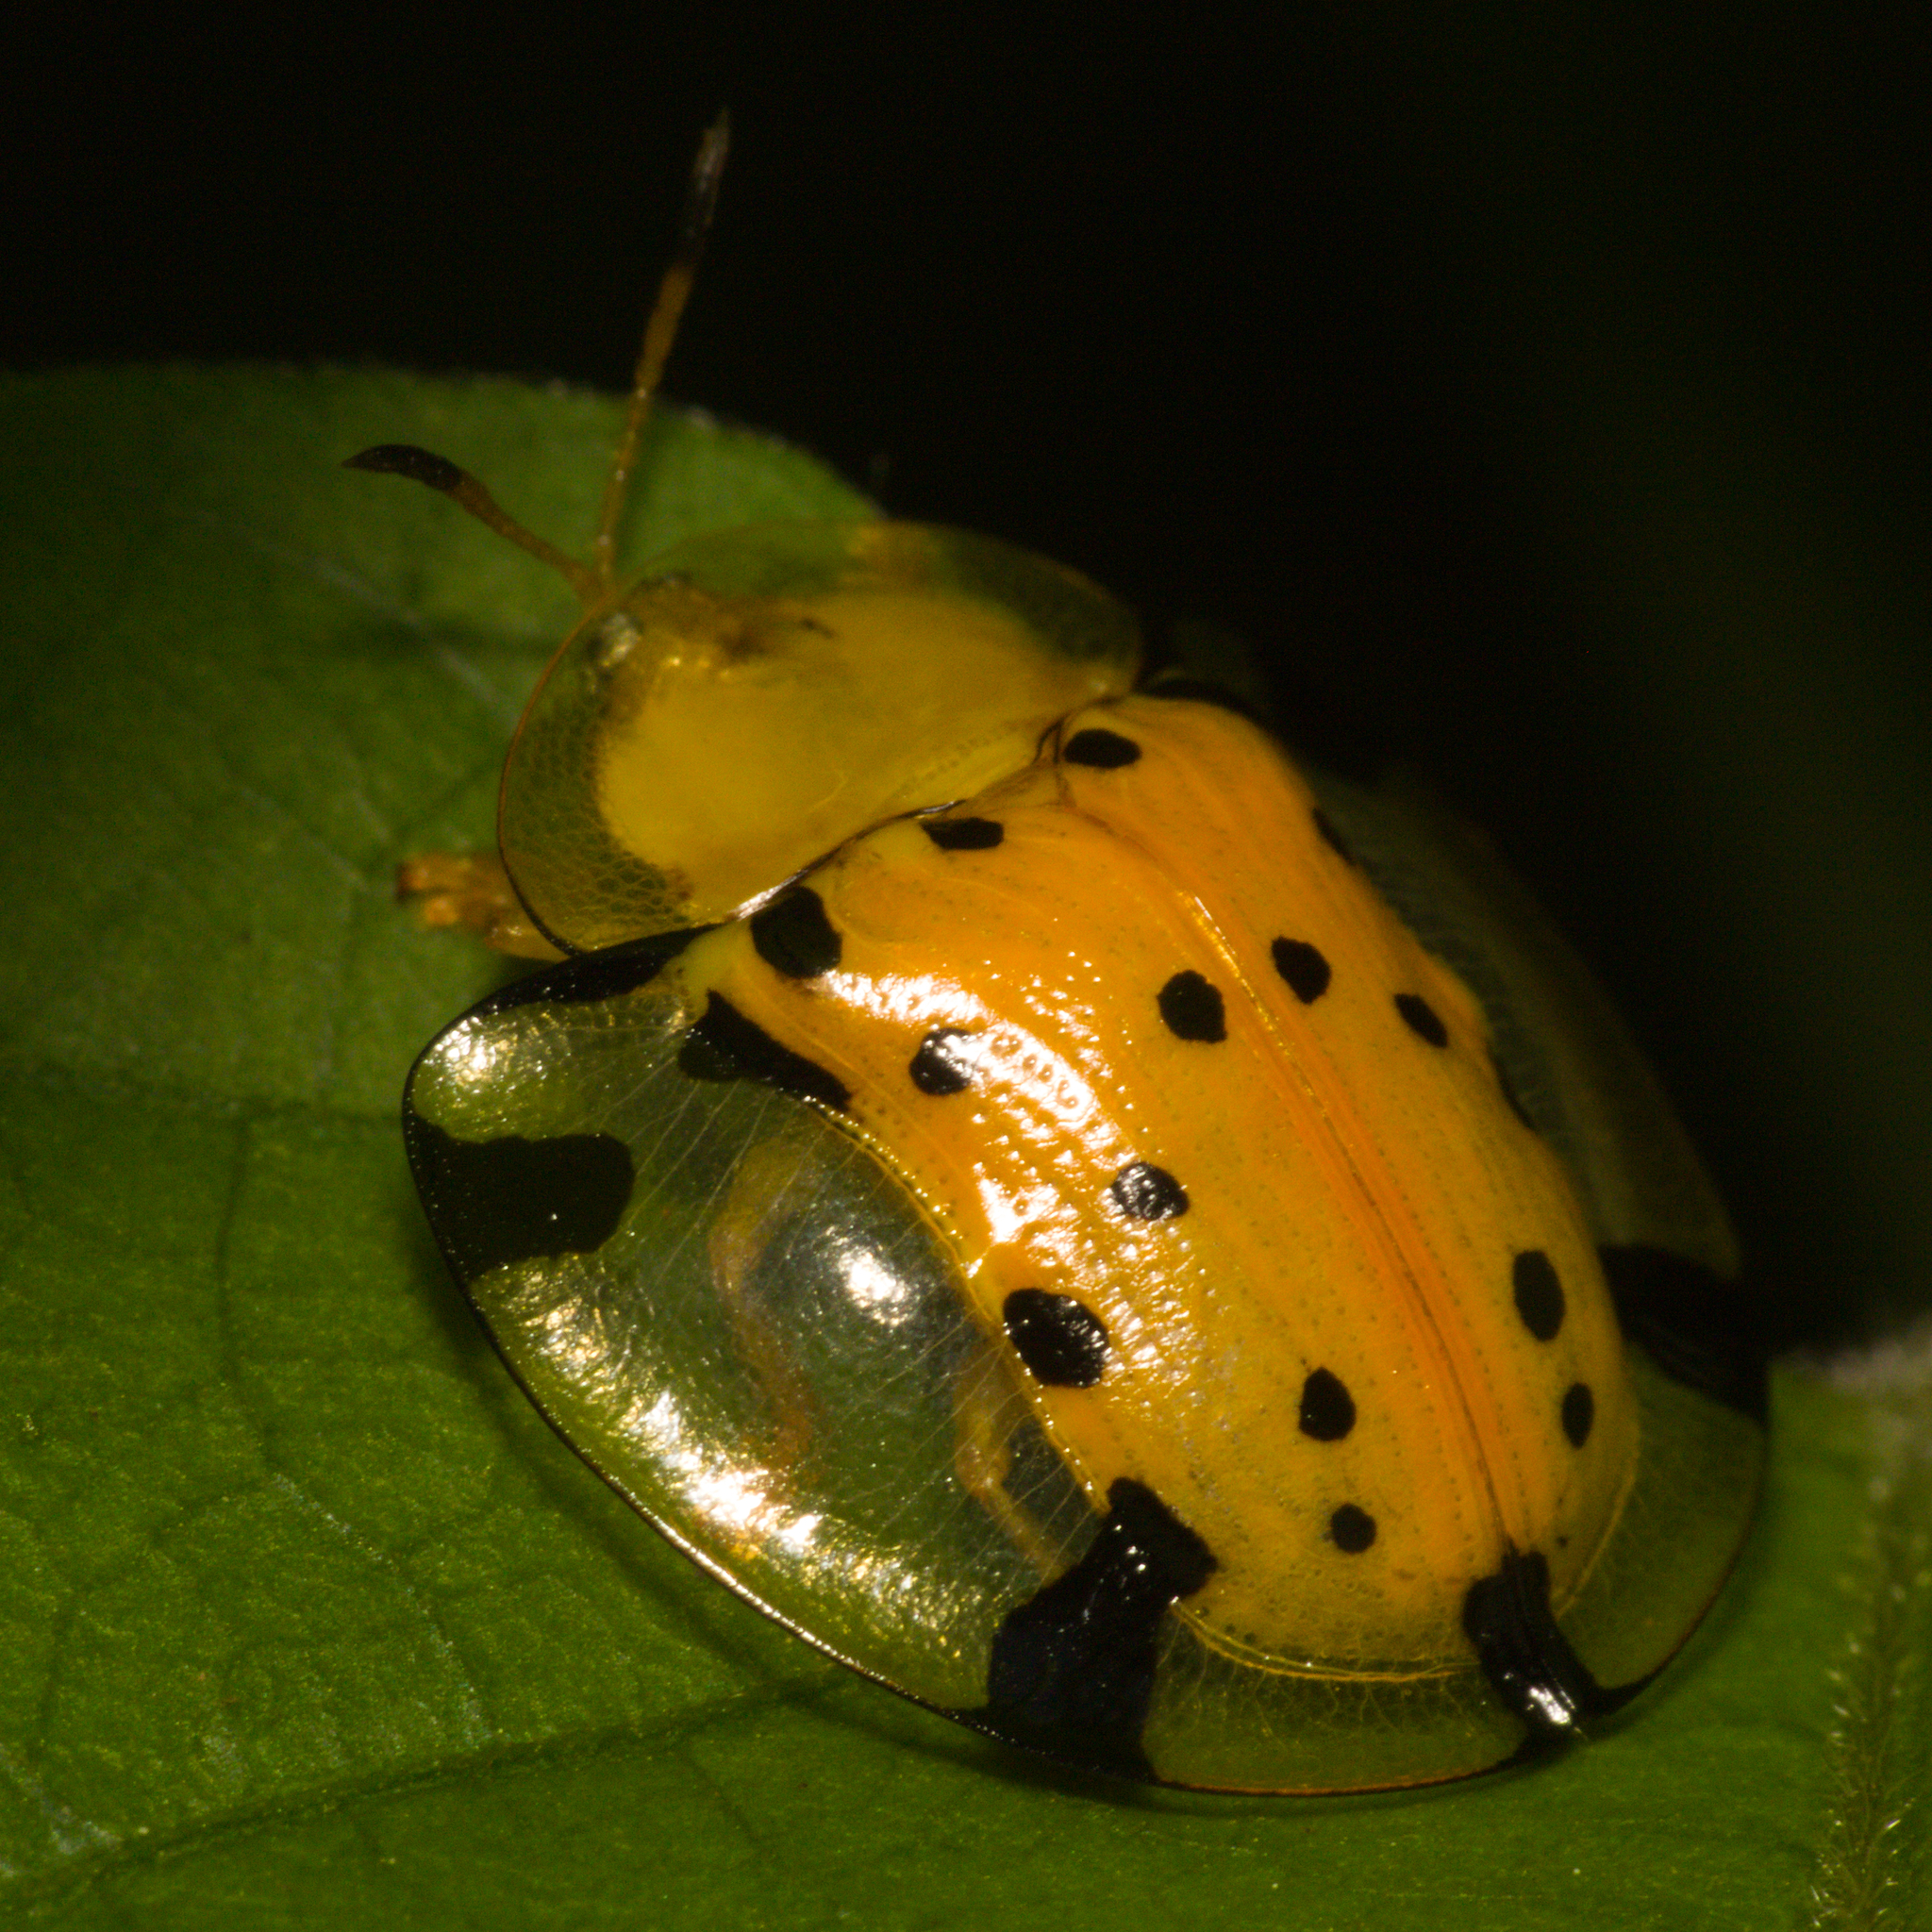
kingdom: Animalia
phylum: Arthropoda
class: Insecta
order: Coleoptera
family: Chrysomelidae
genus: Aspidimorpha
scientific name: Aspidimorpha miliaris
